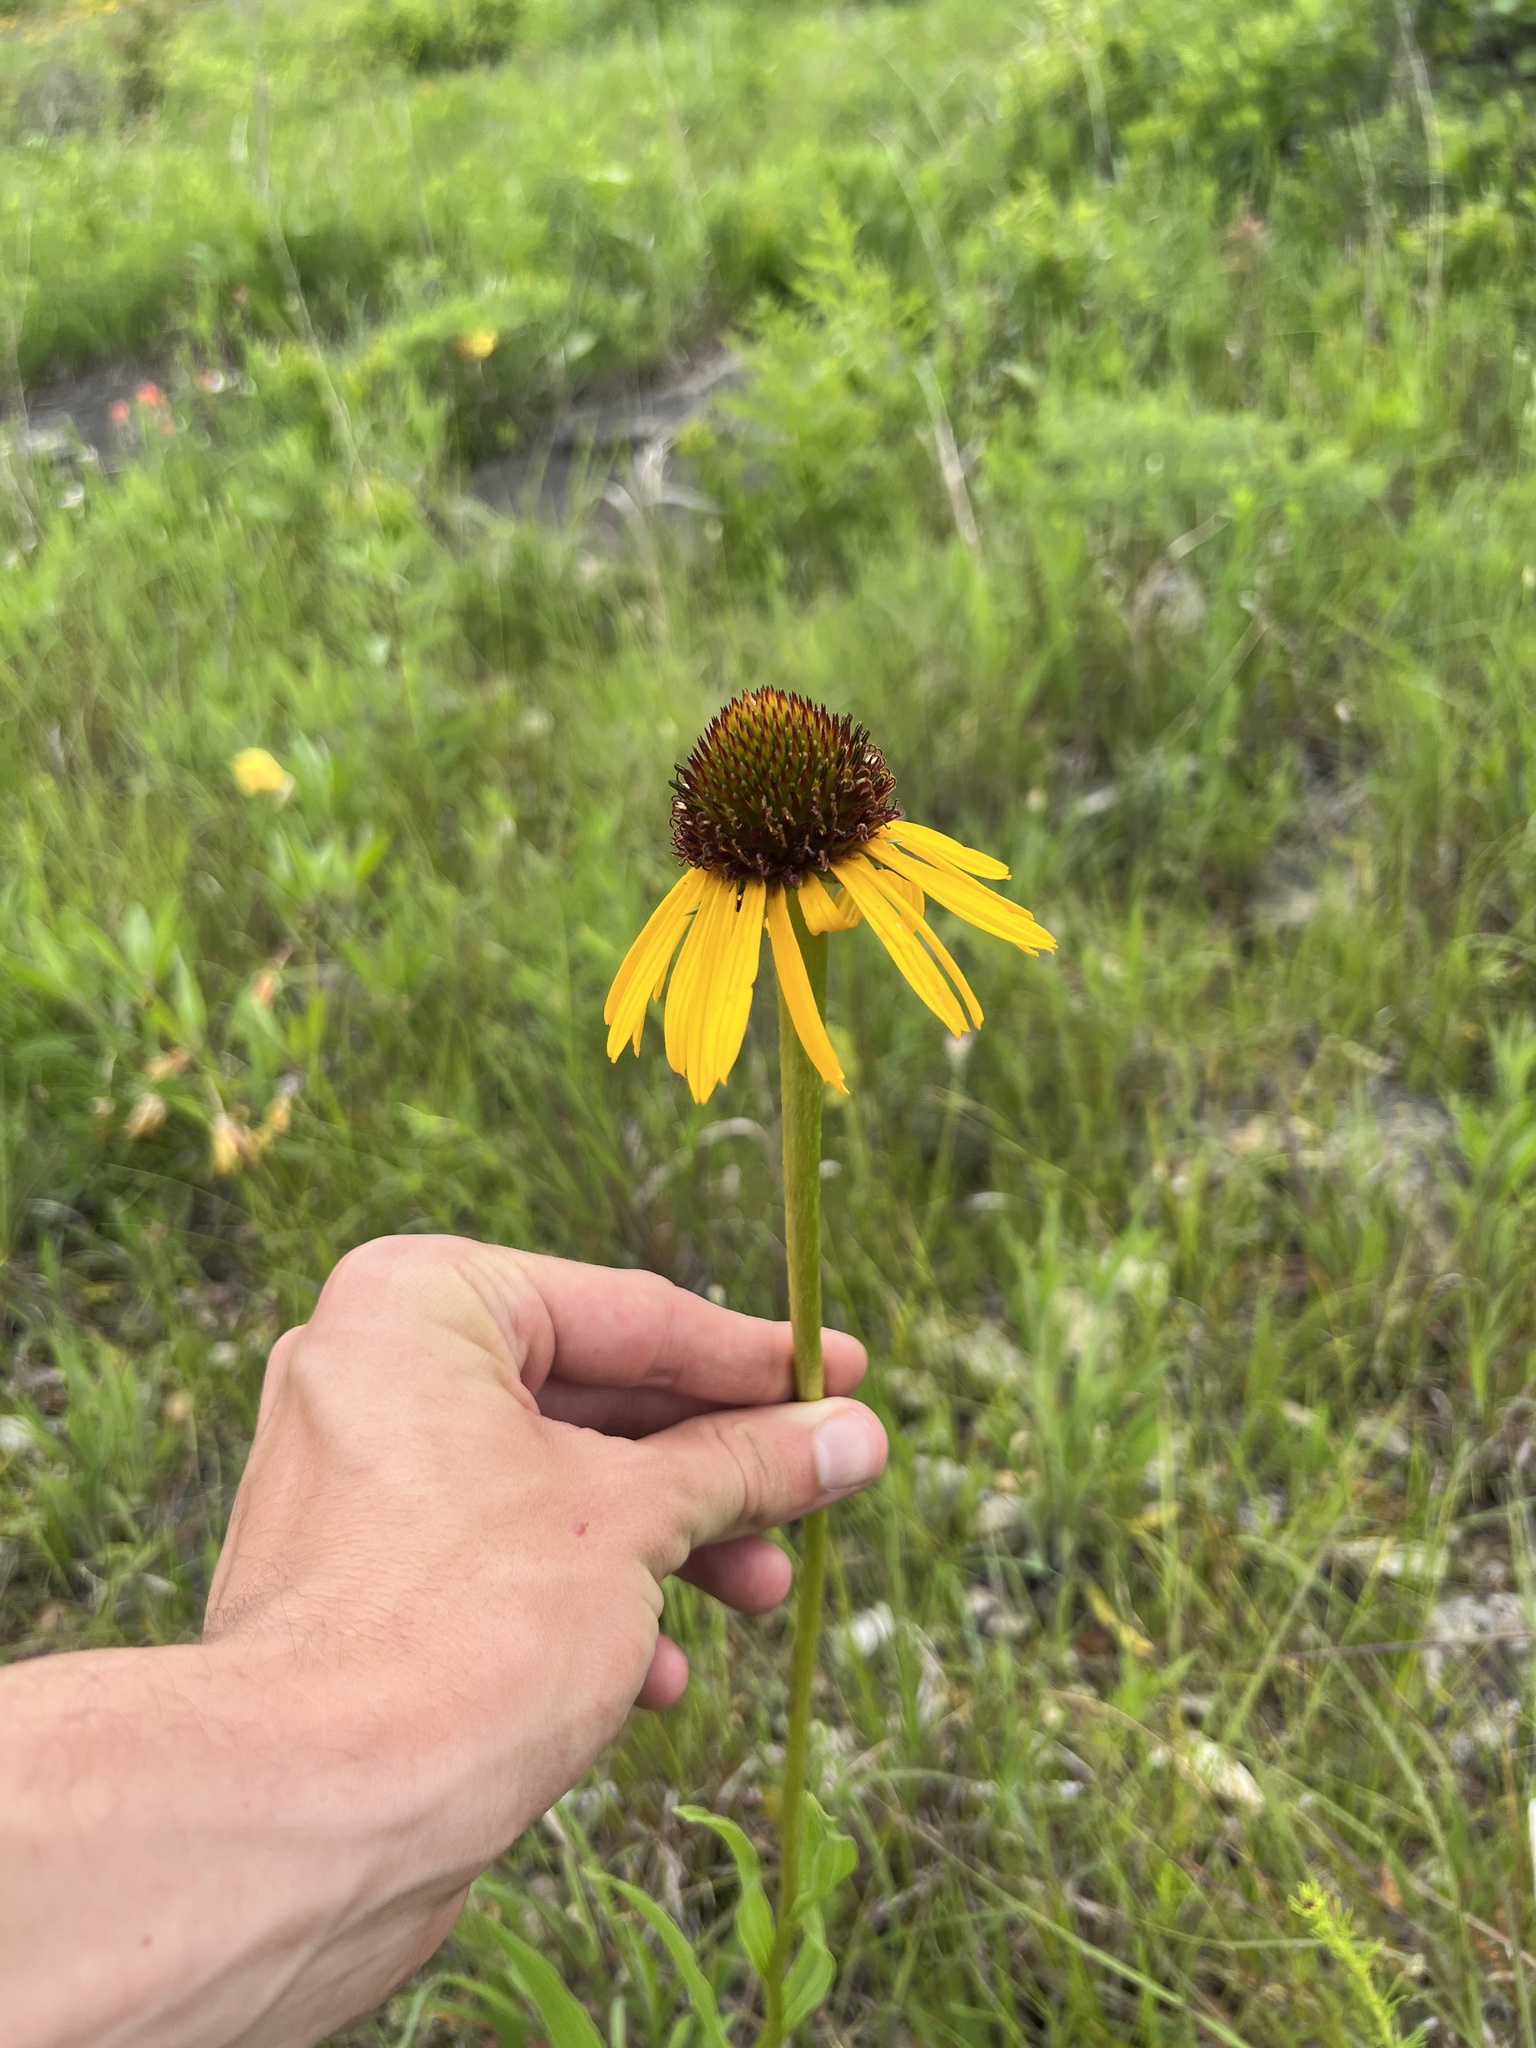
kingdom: Plantae
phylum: Tracheophyta
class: Magnoliopsida
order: Asterales
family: Asteraceae
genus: Echinacea
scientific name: Echinacea paradoxa
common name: Bush's purple-coneflower
